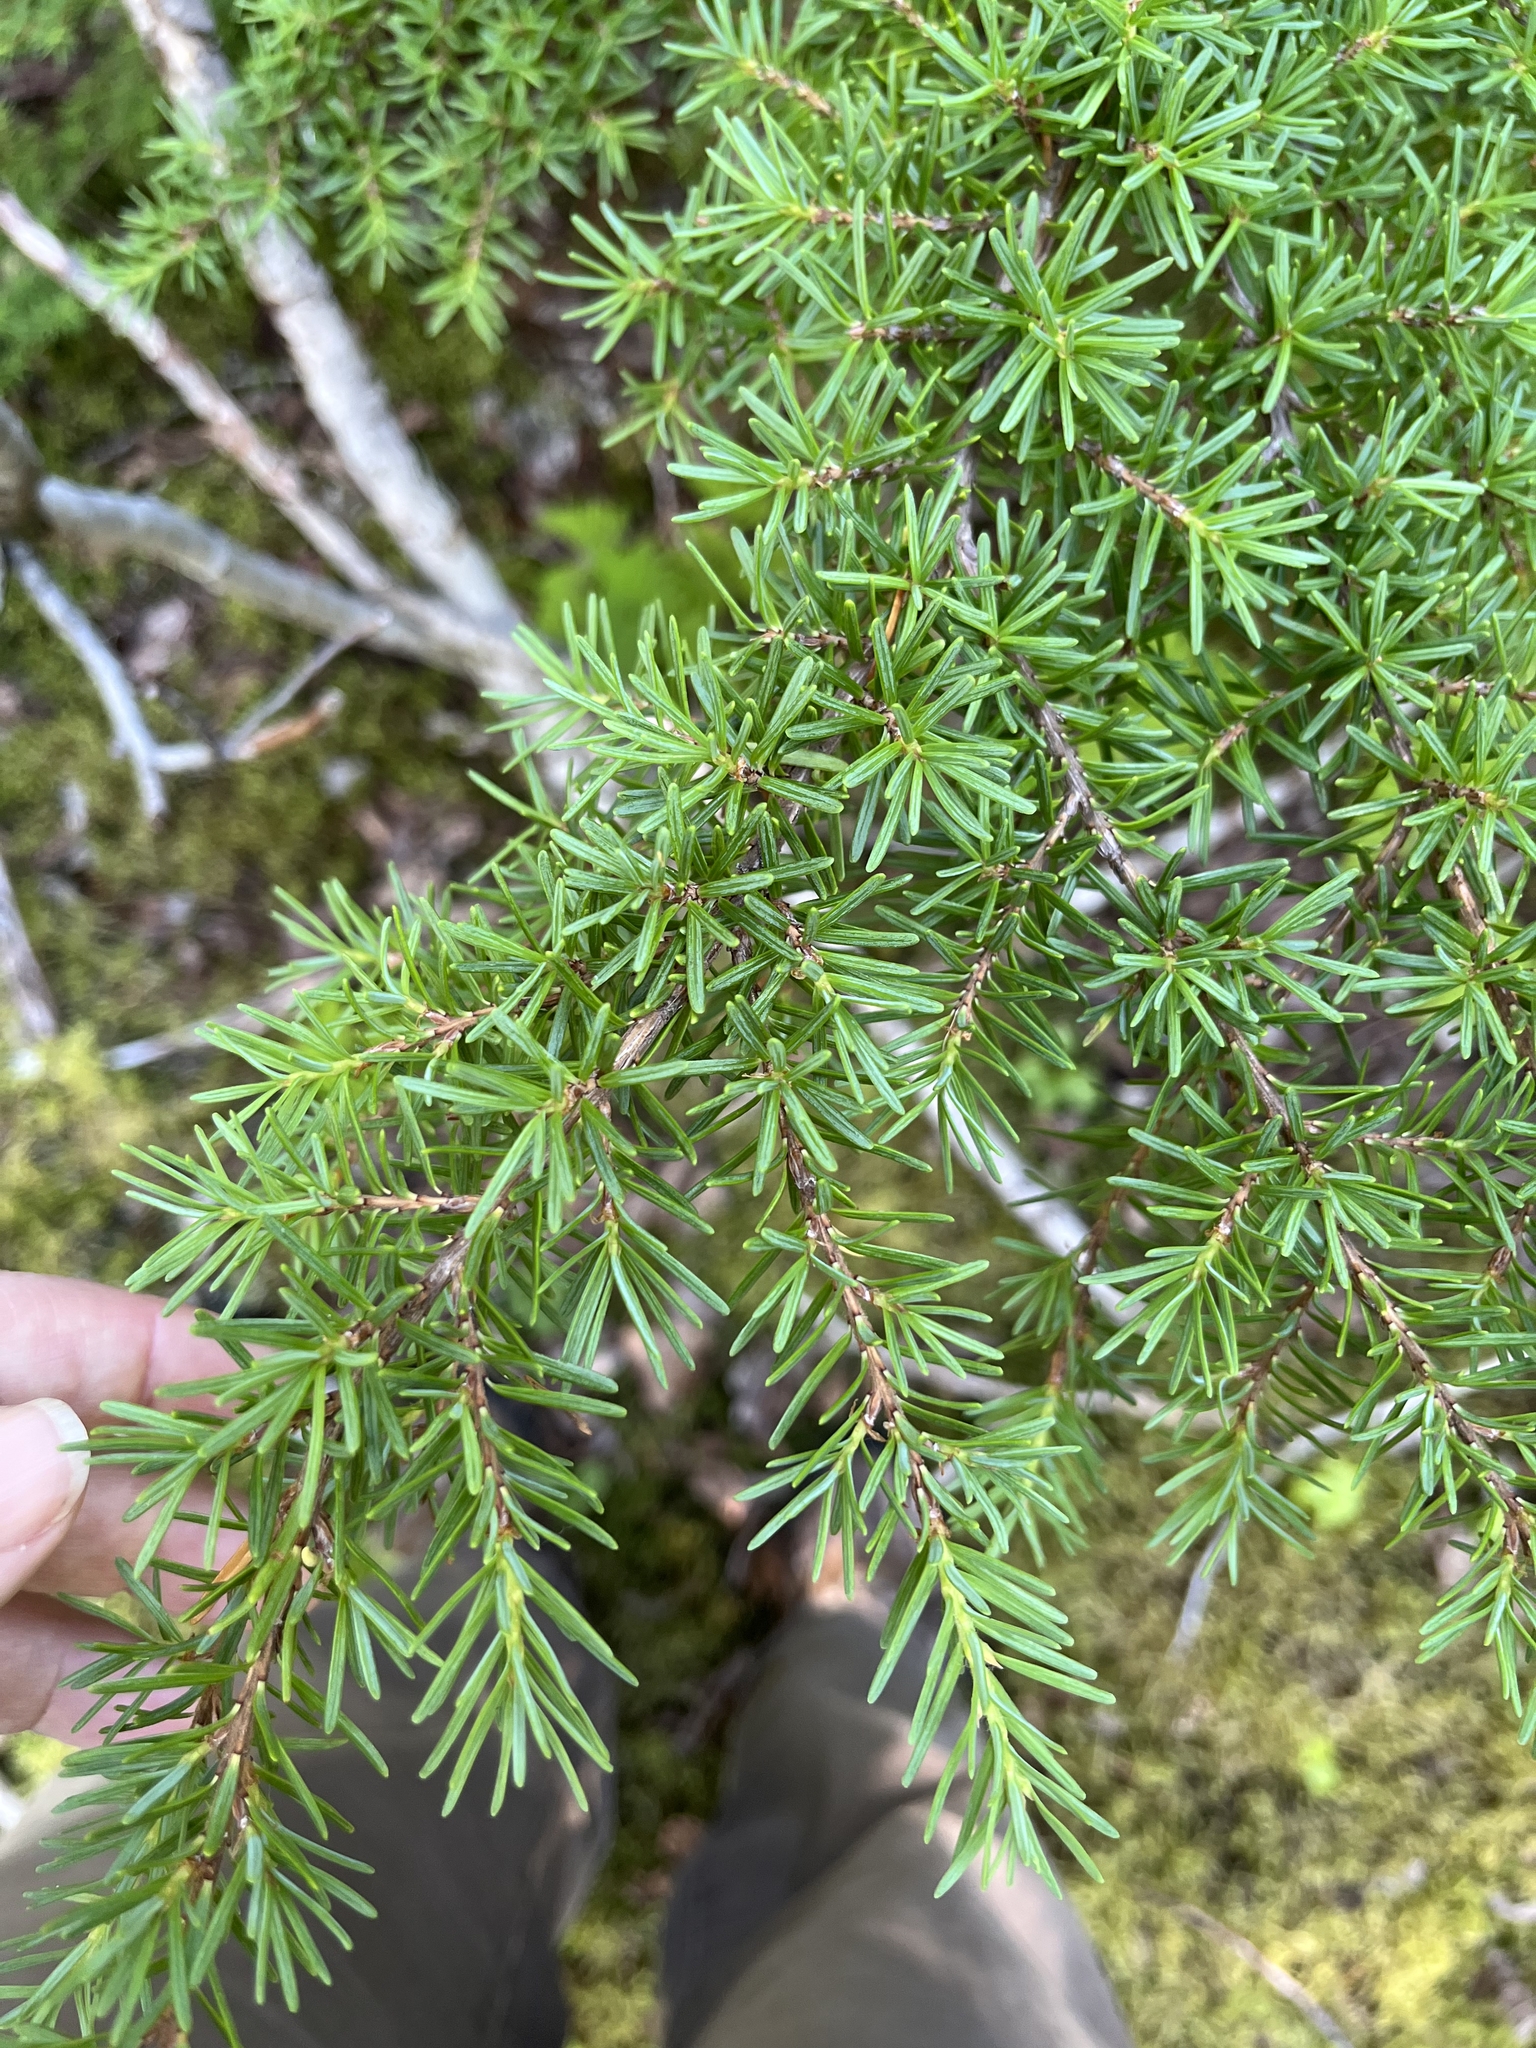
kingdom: Plantae
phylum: Tracheophyta
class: Pinopsida
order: Pinales
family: Pinaceae
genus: Tsuga
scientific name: Tsuga mertensiana
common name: Mountain hemlock
